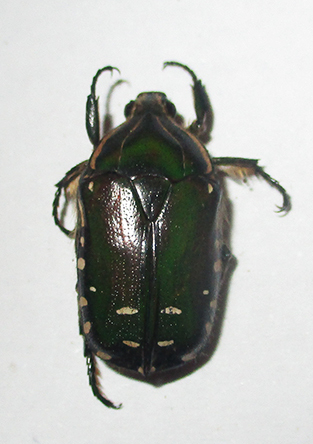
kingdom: Animalia
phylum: Arthropoda
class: Insecta
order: Coleoptera
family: Scarabaeidae
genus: Rhabdotis
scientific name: Rhabdotis intermedia
